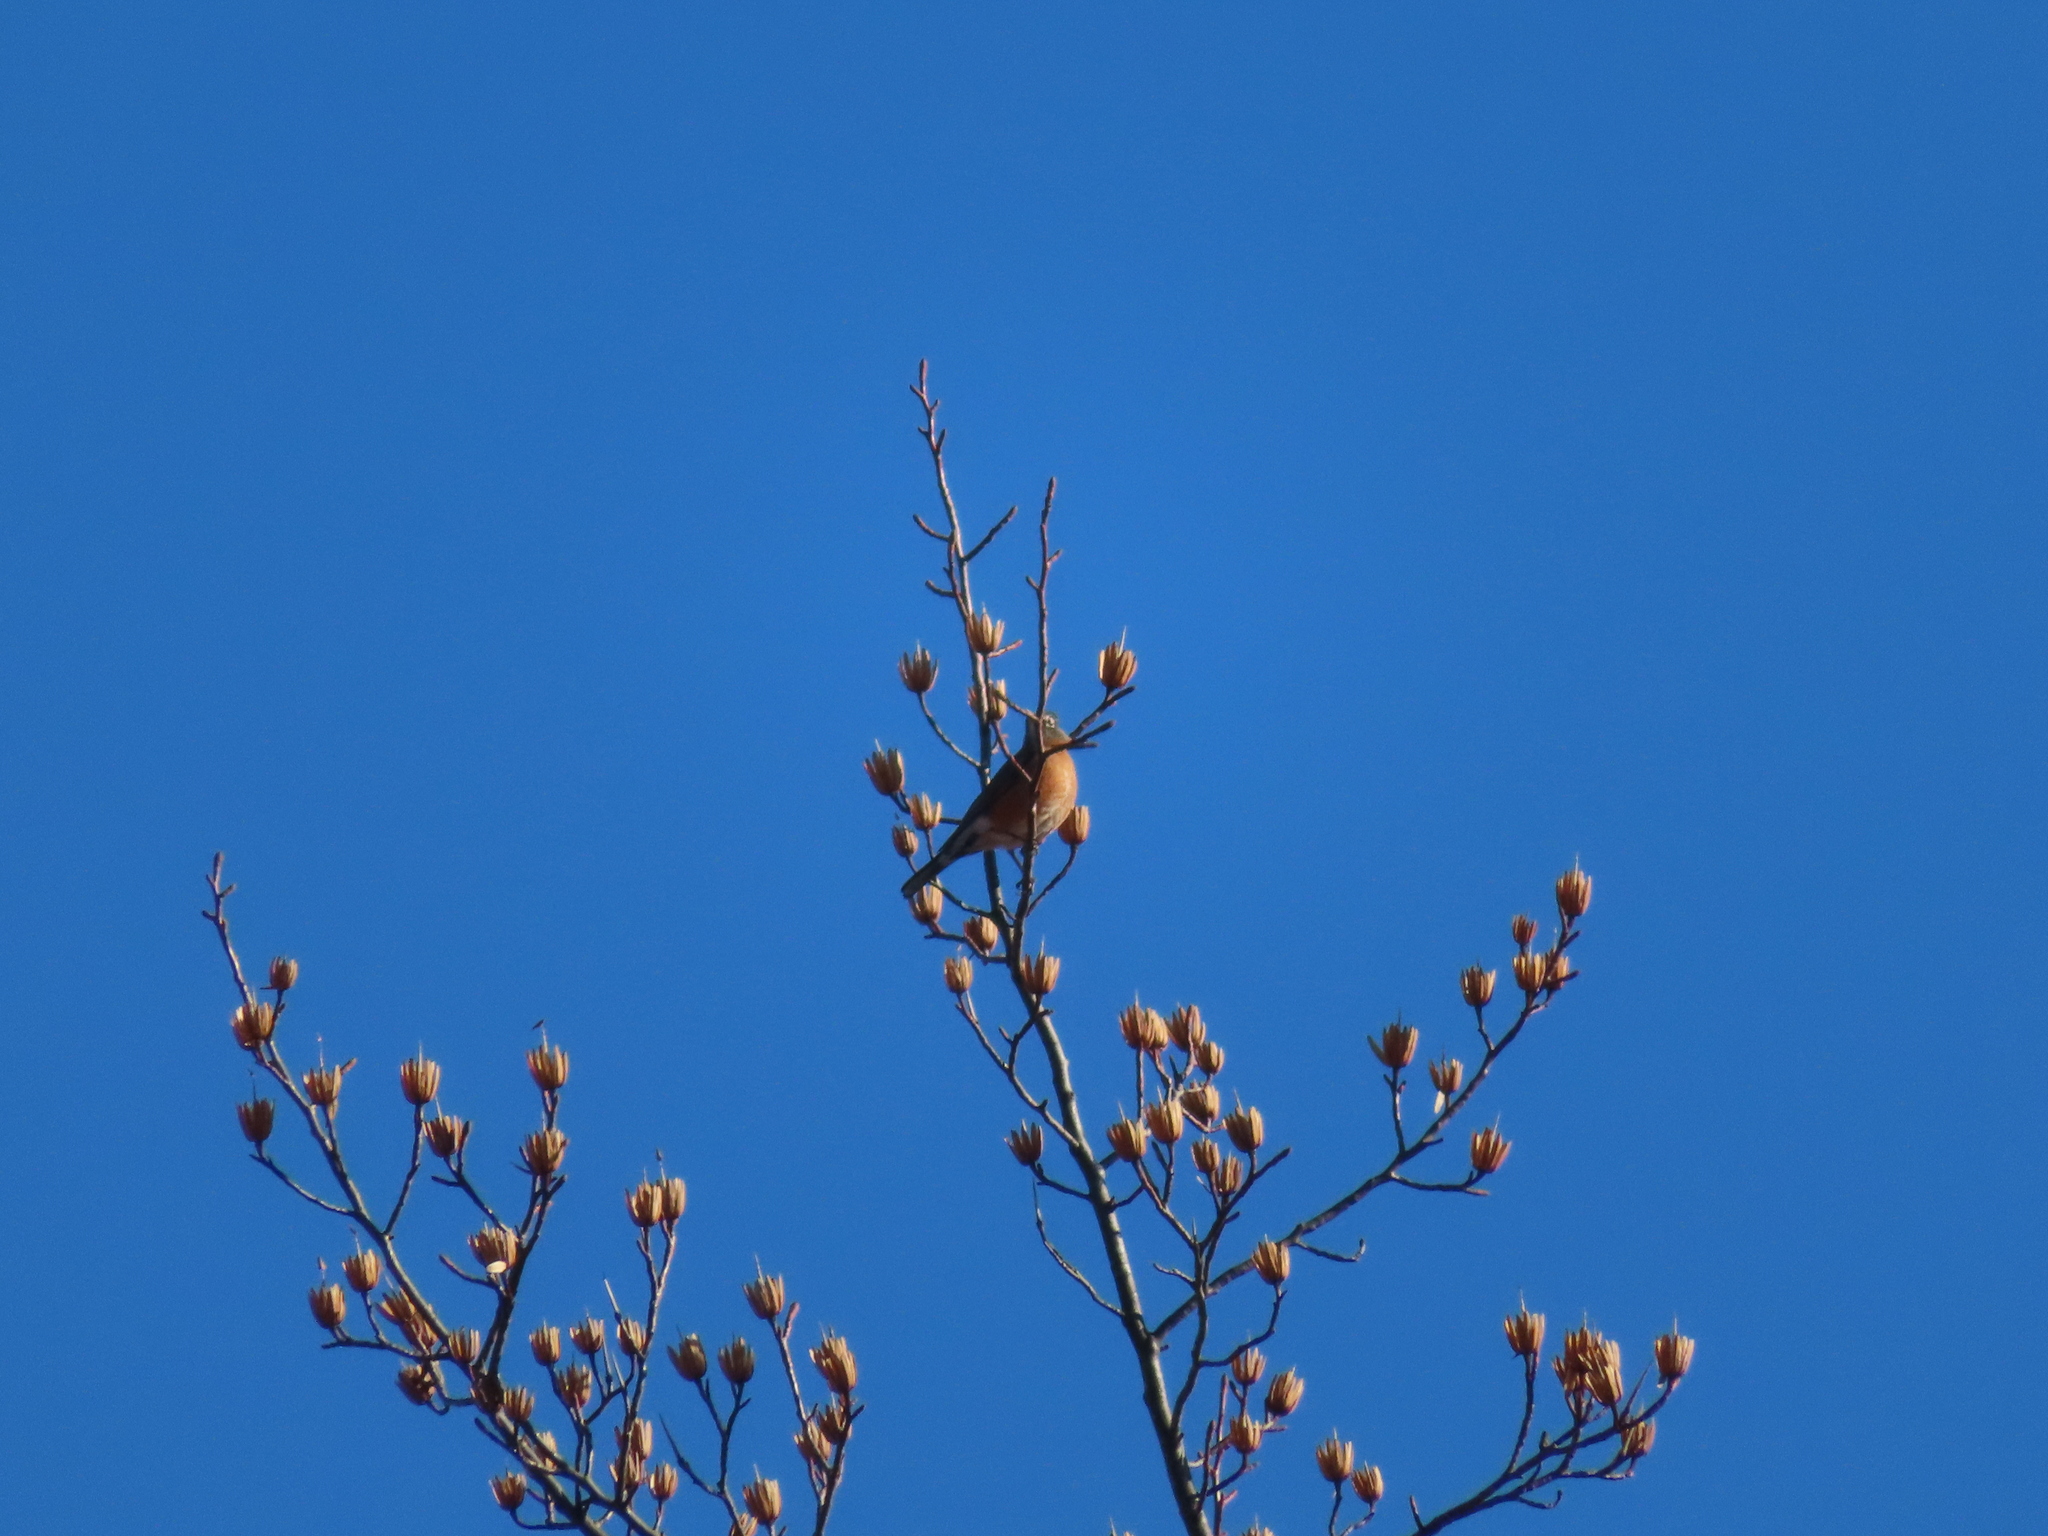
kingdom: Animalia
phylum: Chordata
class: Aves
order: Passeriformes
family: Turdidae
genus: Turdus
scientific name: Turdus migratorius
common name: American robin
